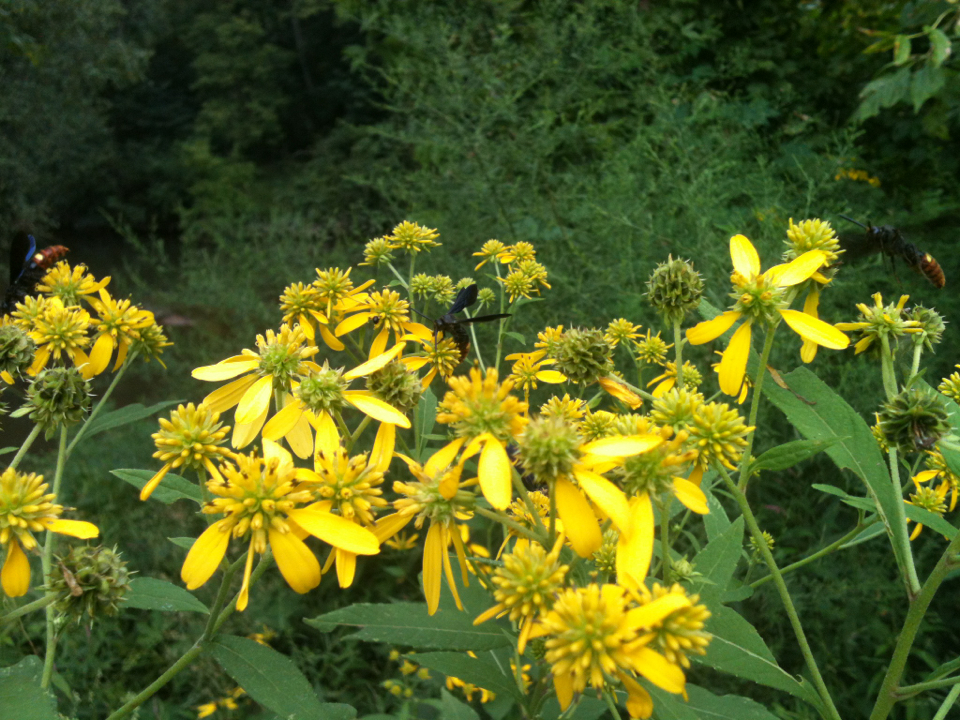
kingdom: Plantae
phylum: Tracheophyta
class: Magnoliopsida
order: Asterales
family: Asteraceae
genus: Verbesina
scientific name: Verbesina alternifolia
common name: Wingstem
